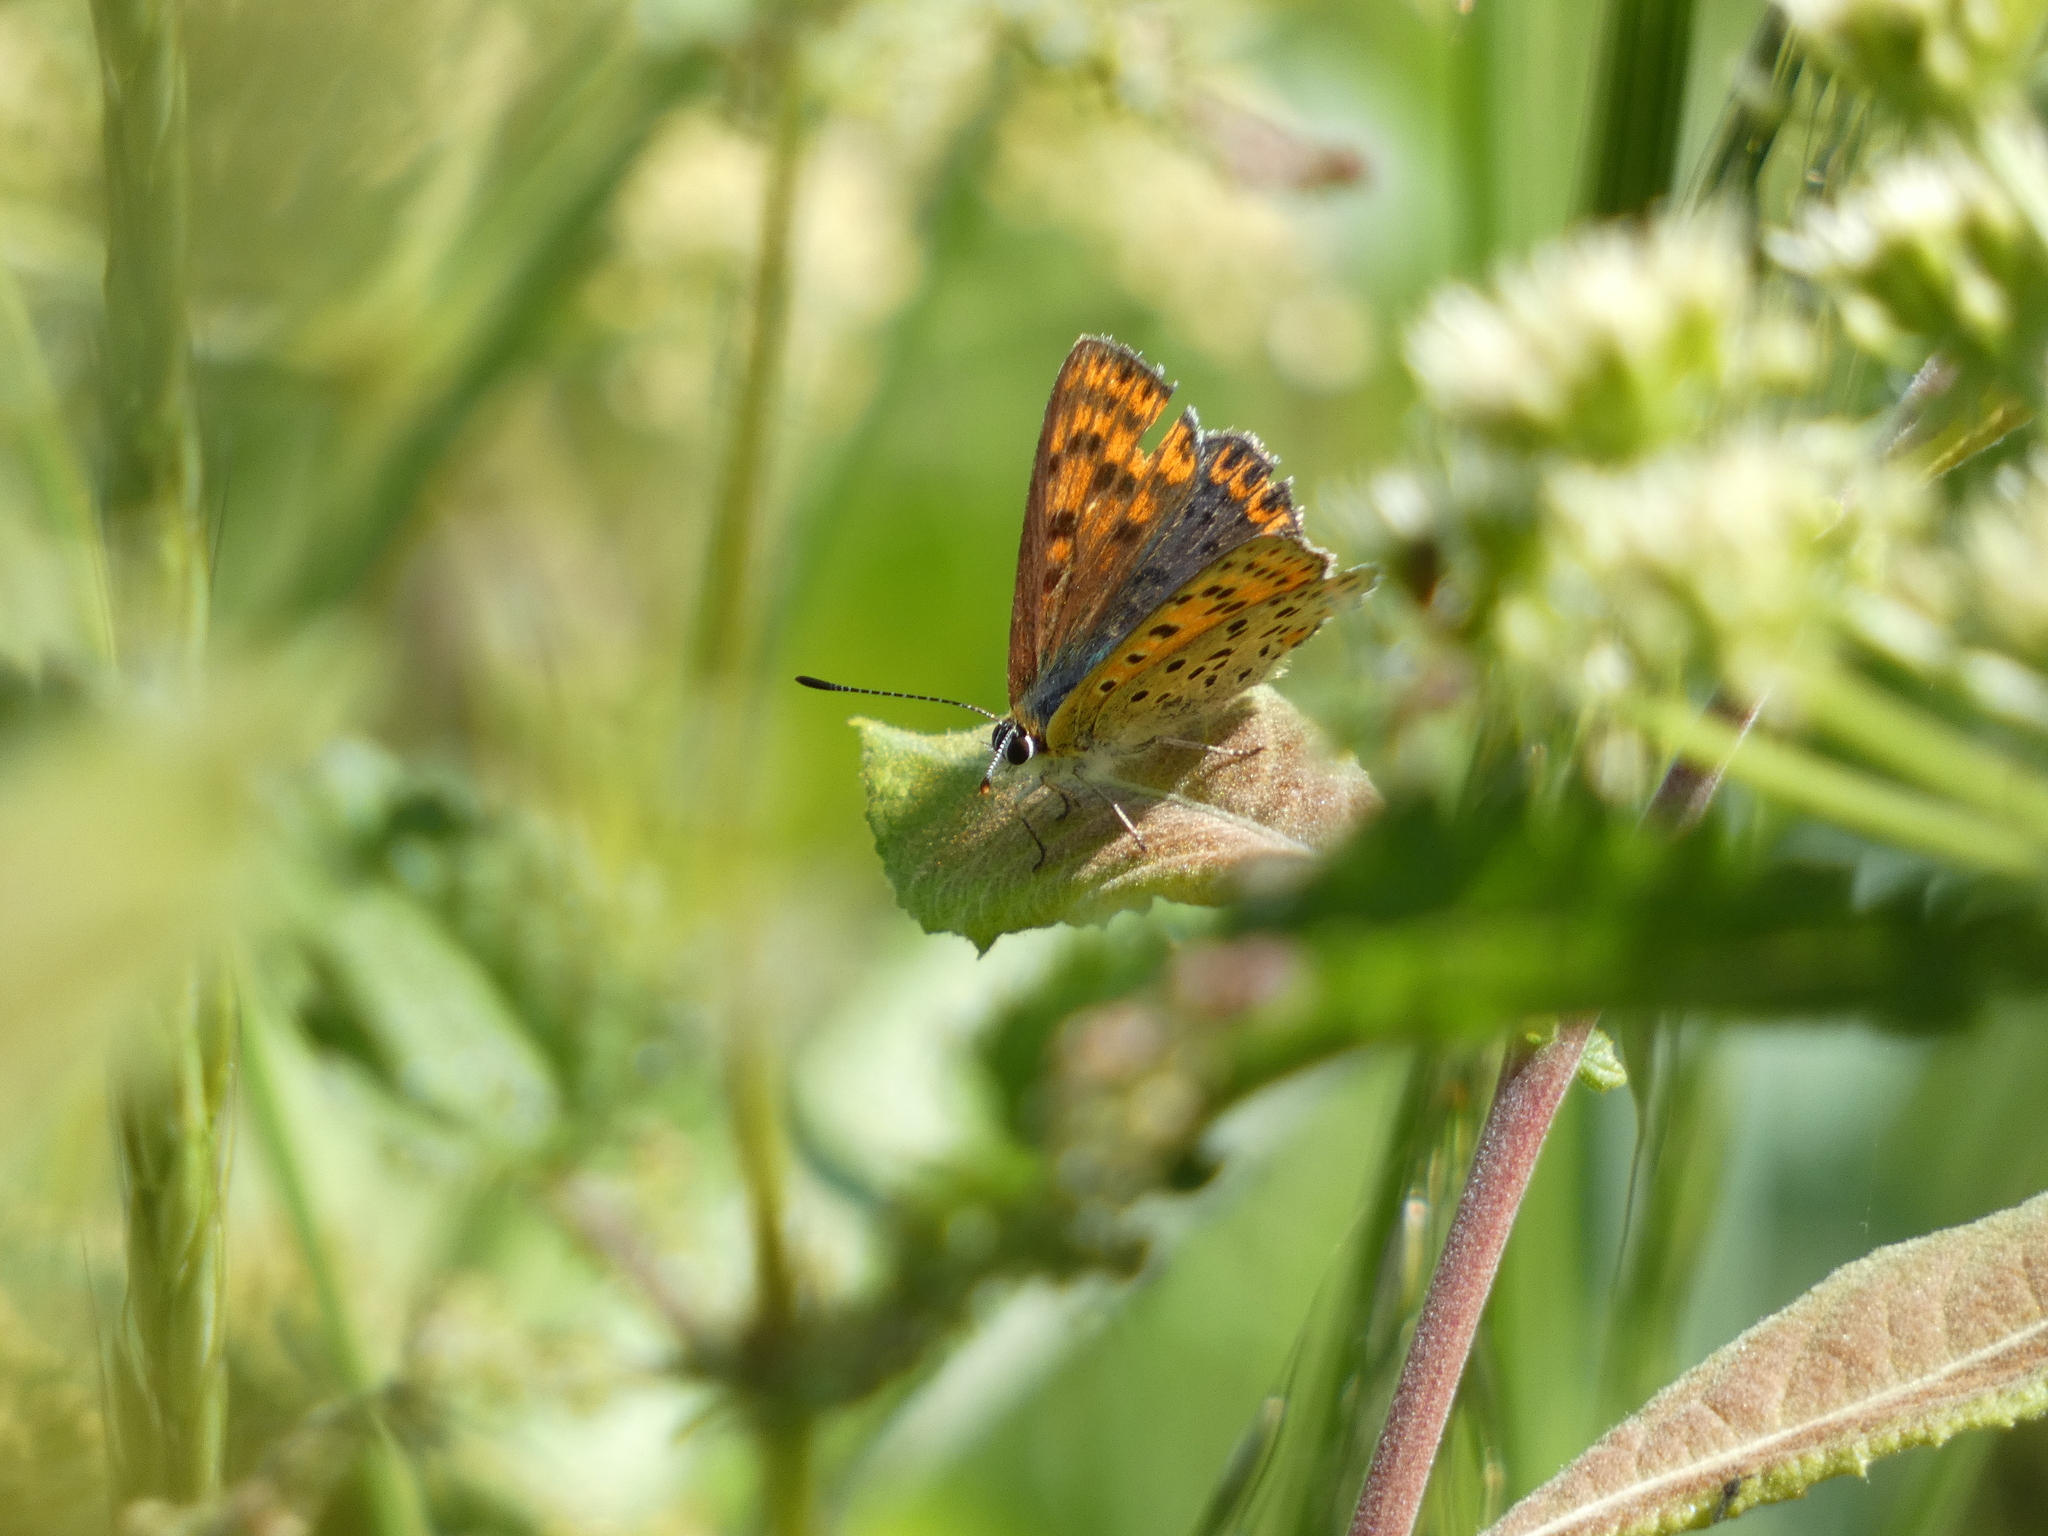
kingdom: Animalia
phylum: Arthropoda
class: Insecta
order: Lepidoptera
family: Lycaenidae
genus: Loweia
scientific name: Loweia tityrus
